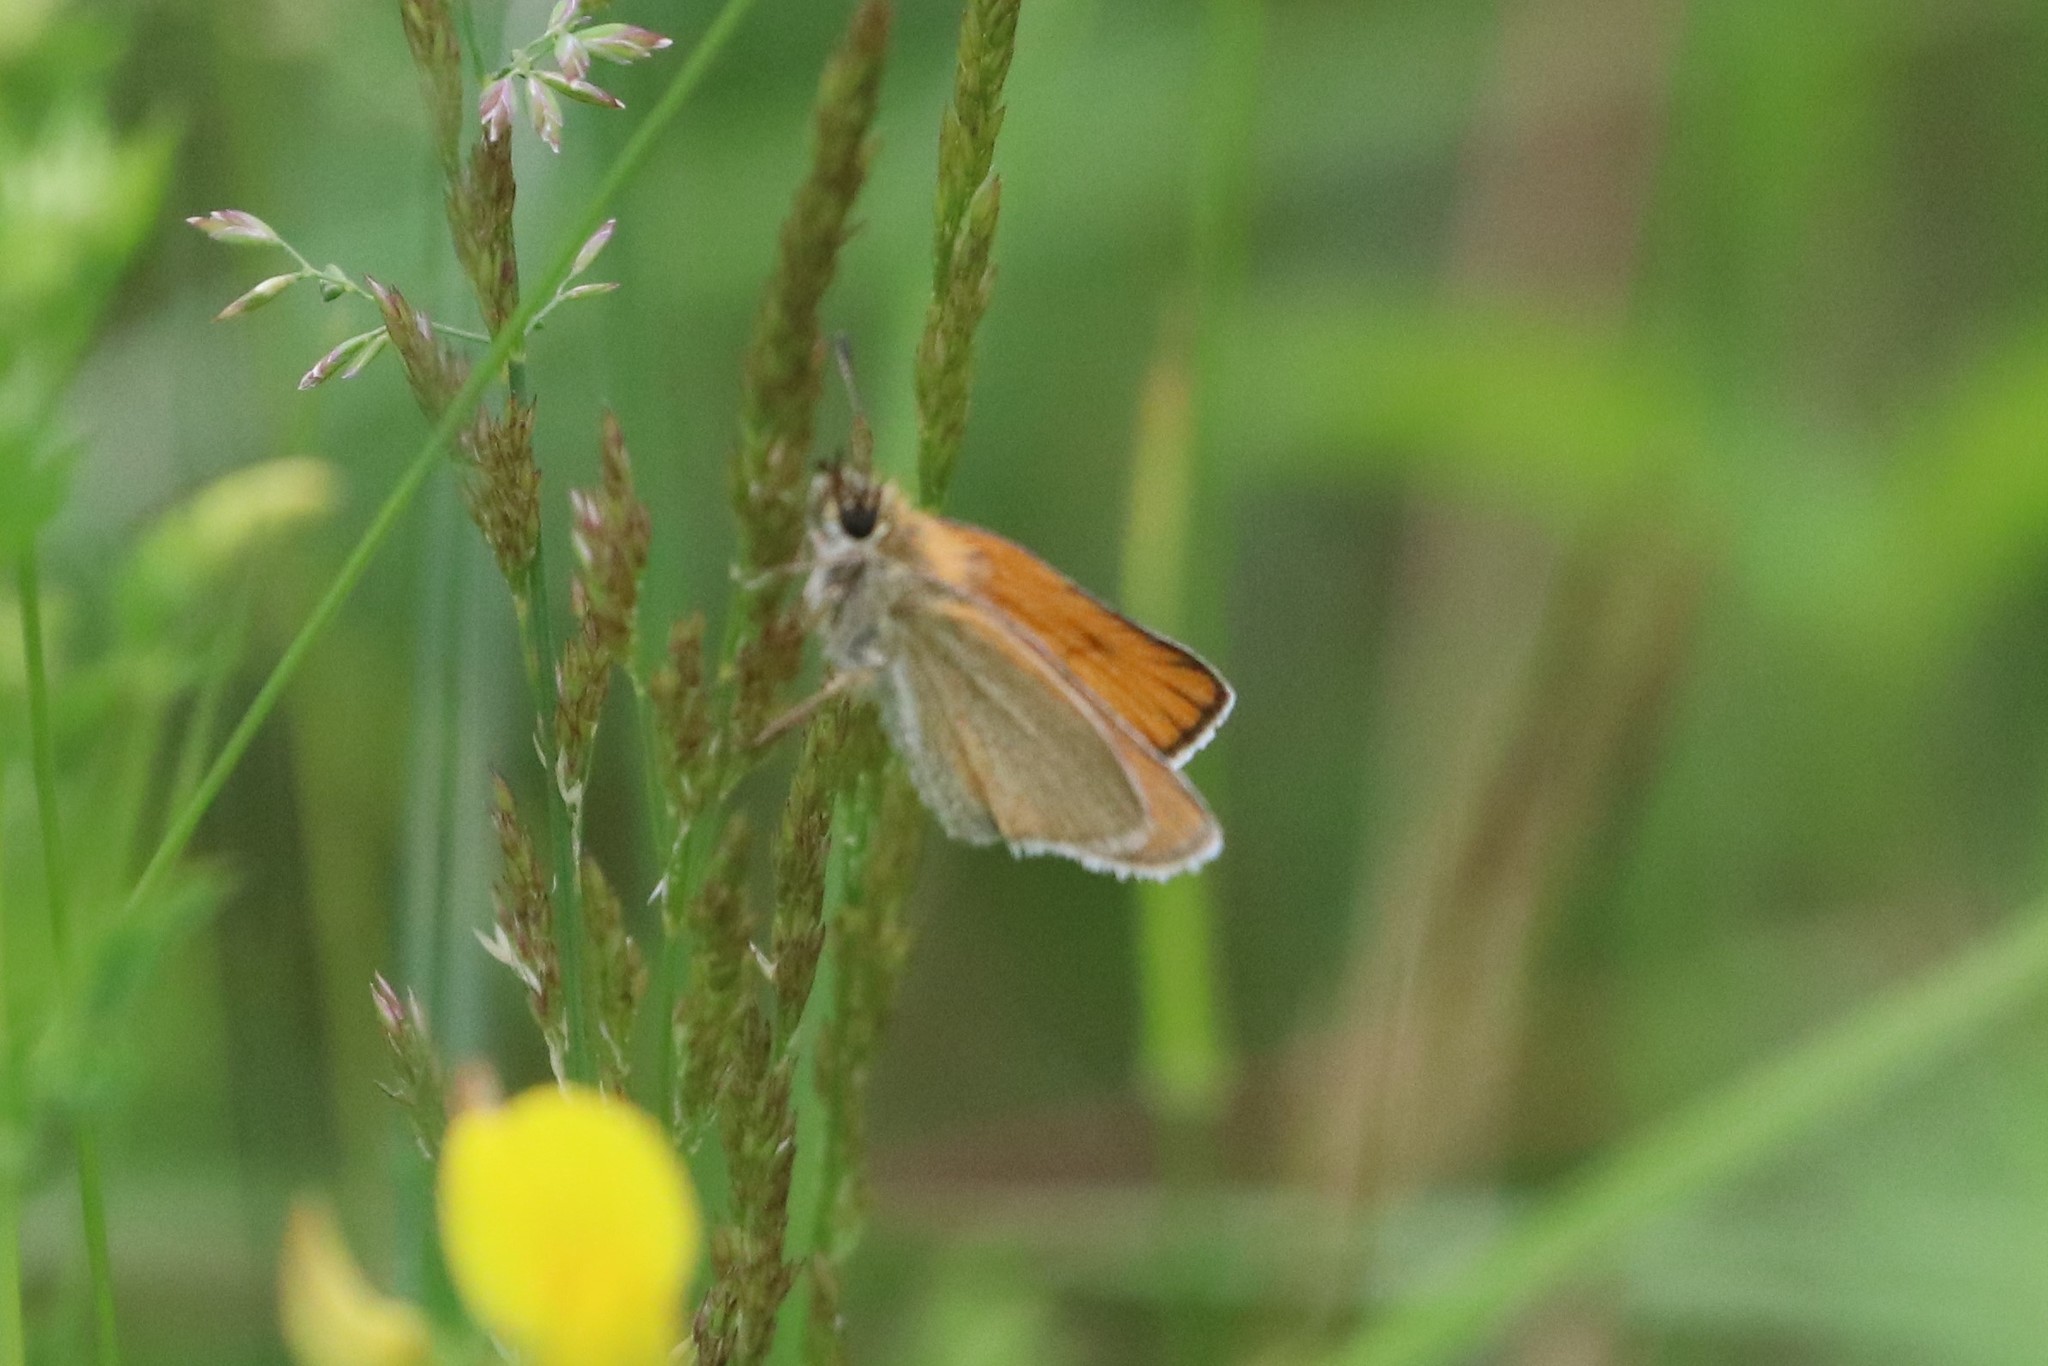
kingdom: Animalia
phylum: Arthropoda
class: Insecta
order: Lepidoptera
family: Hesperiidae
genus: Thymelicus
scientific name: Thymelicus lineola
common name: Essex skipper
